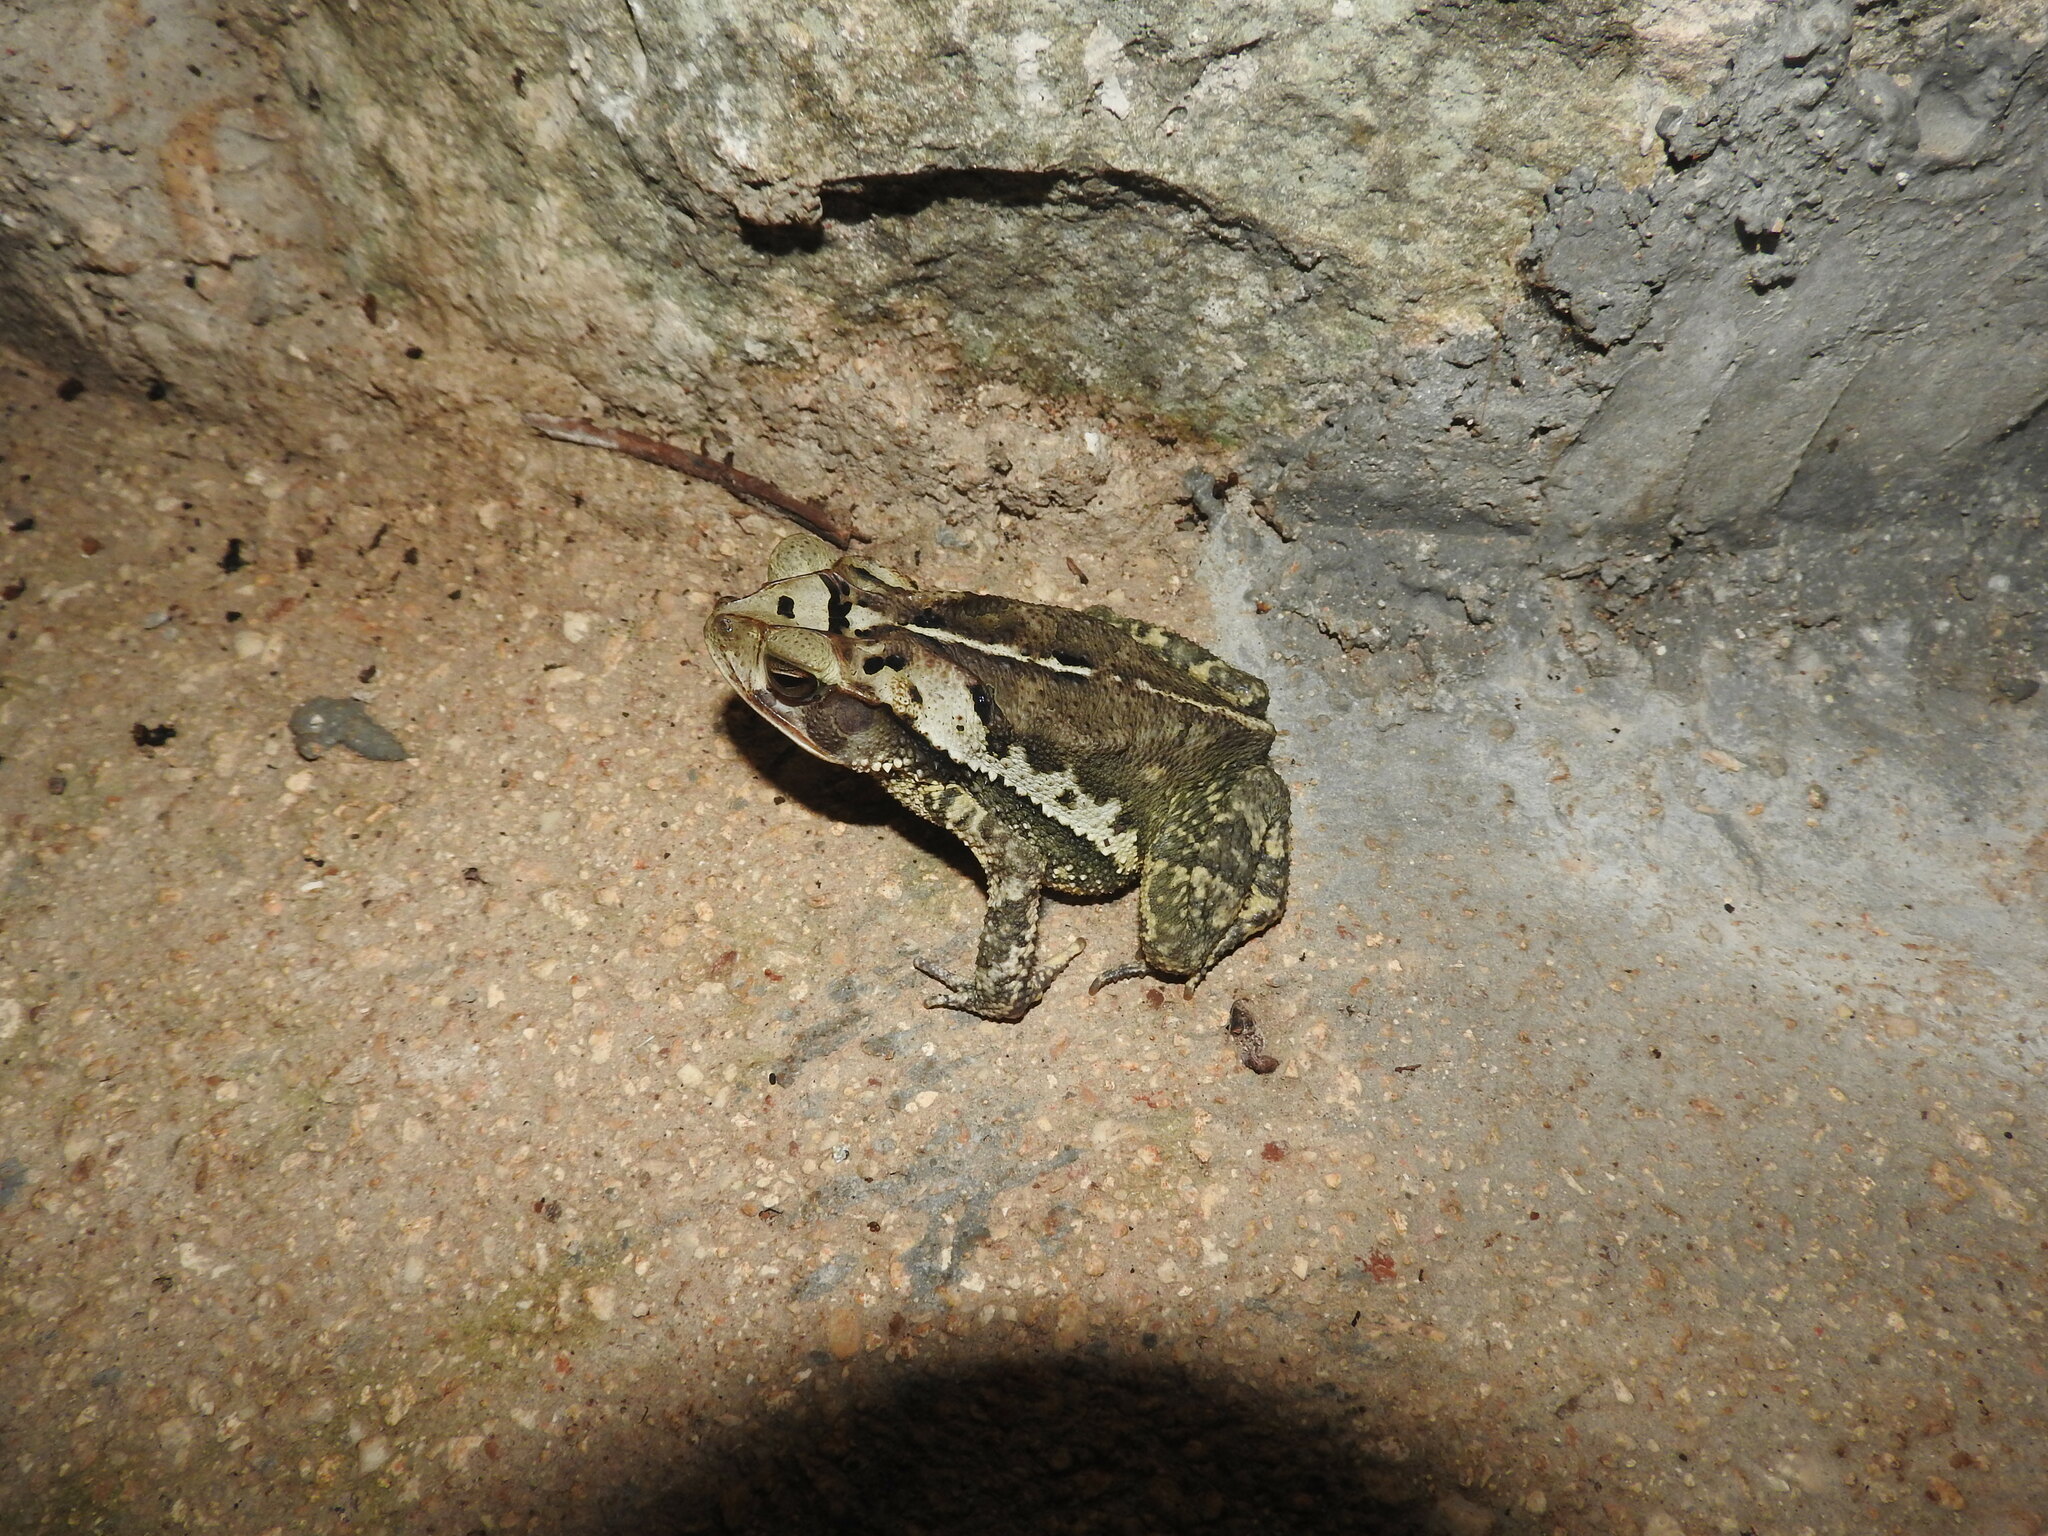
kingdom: Animalia
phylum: Chordata
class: Amphibia
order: Anura
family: Bufonidae
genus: Incilius
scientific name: Incilius valliceps
